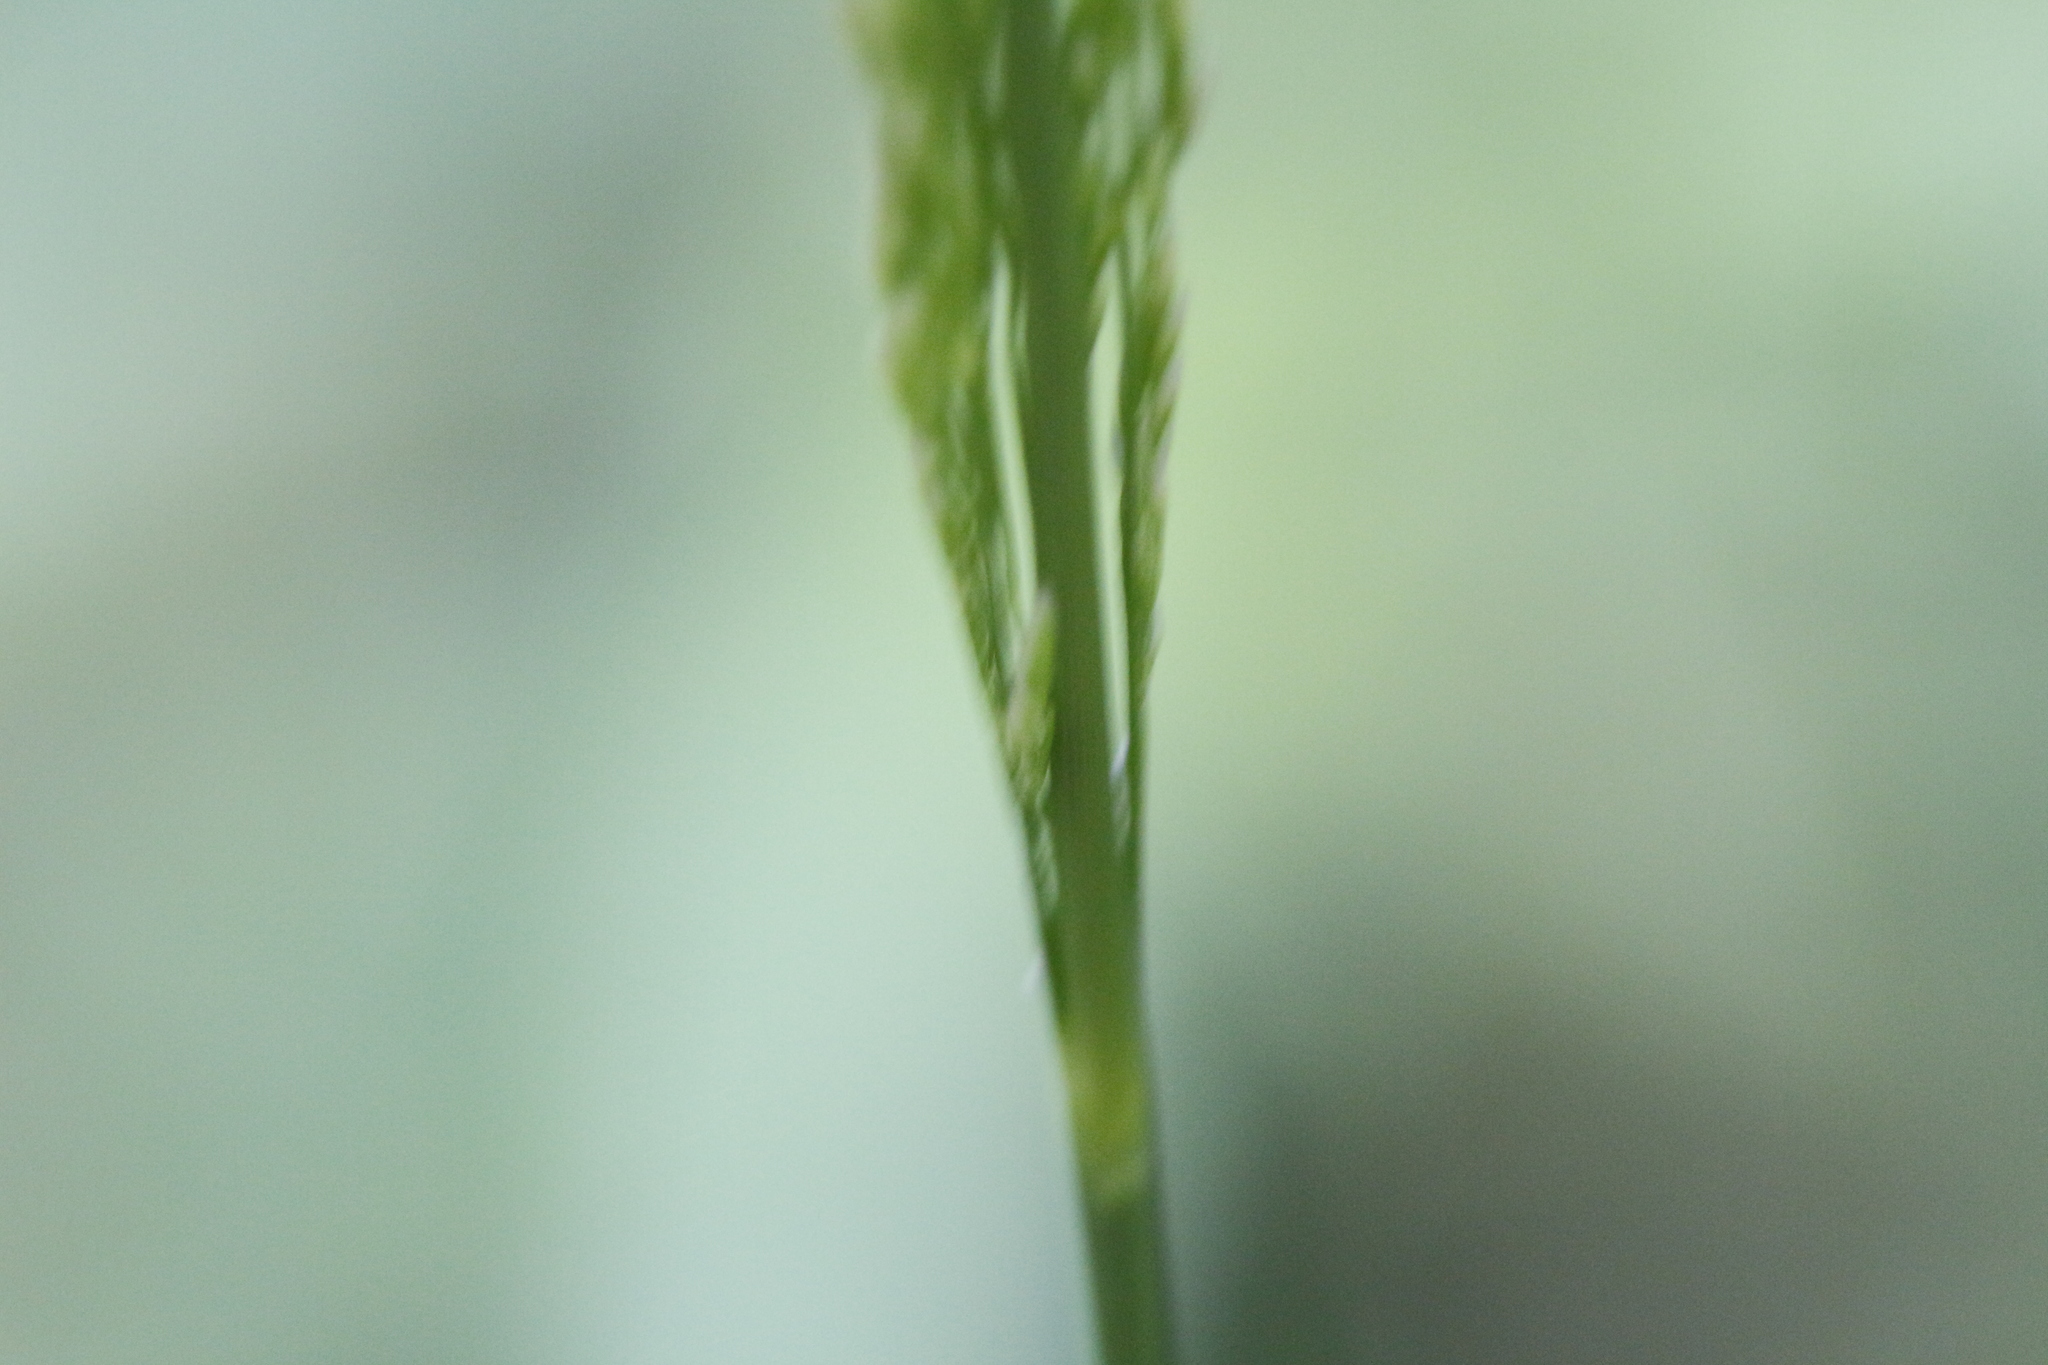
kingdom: Plantae
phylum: Tracheophyta
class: Liliopsida
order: Poales
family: Poaceae
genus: Avenella
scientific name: Avenella flexuosa
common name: Wavy hairgrass
